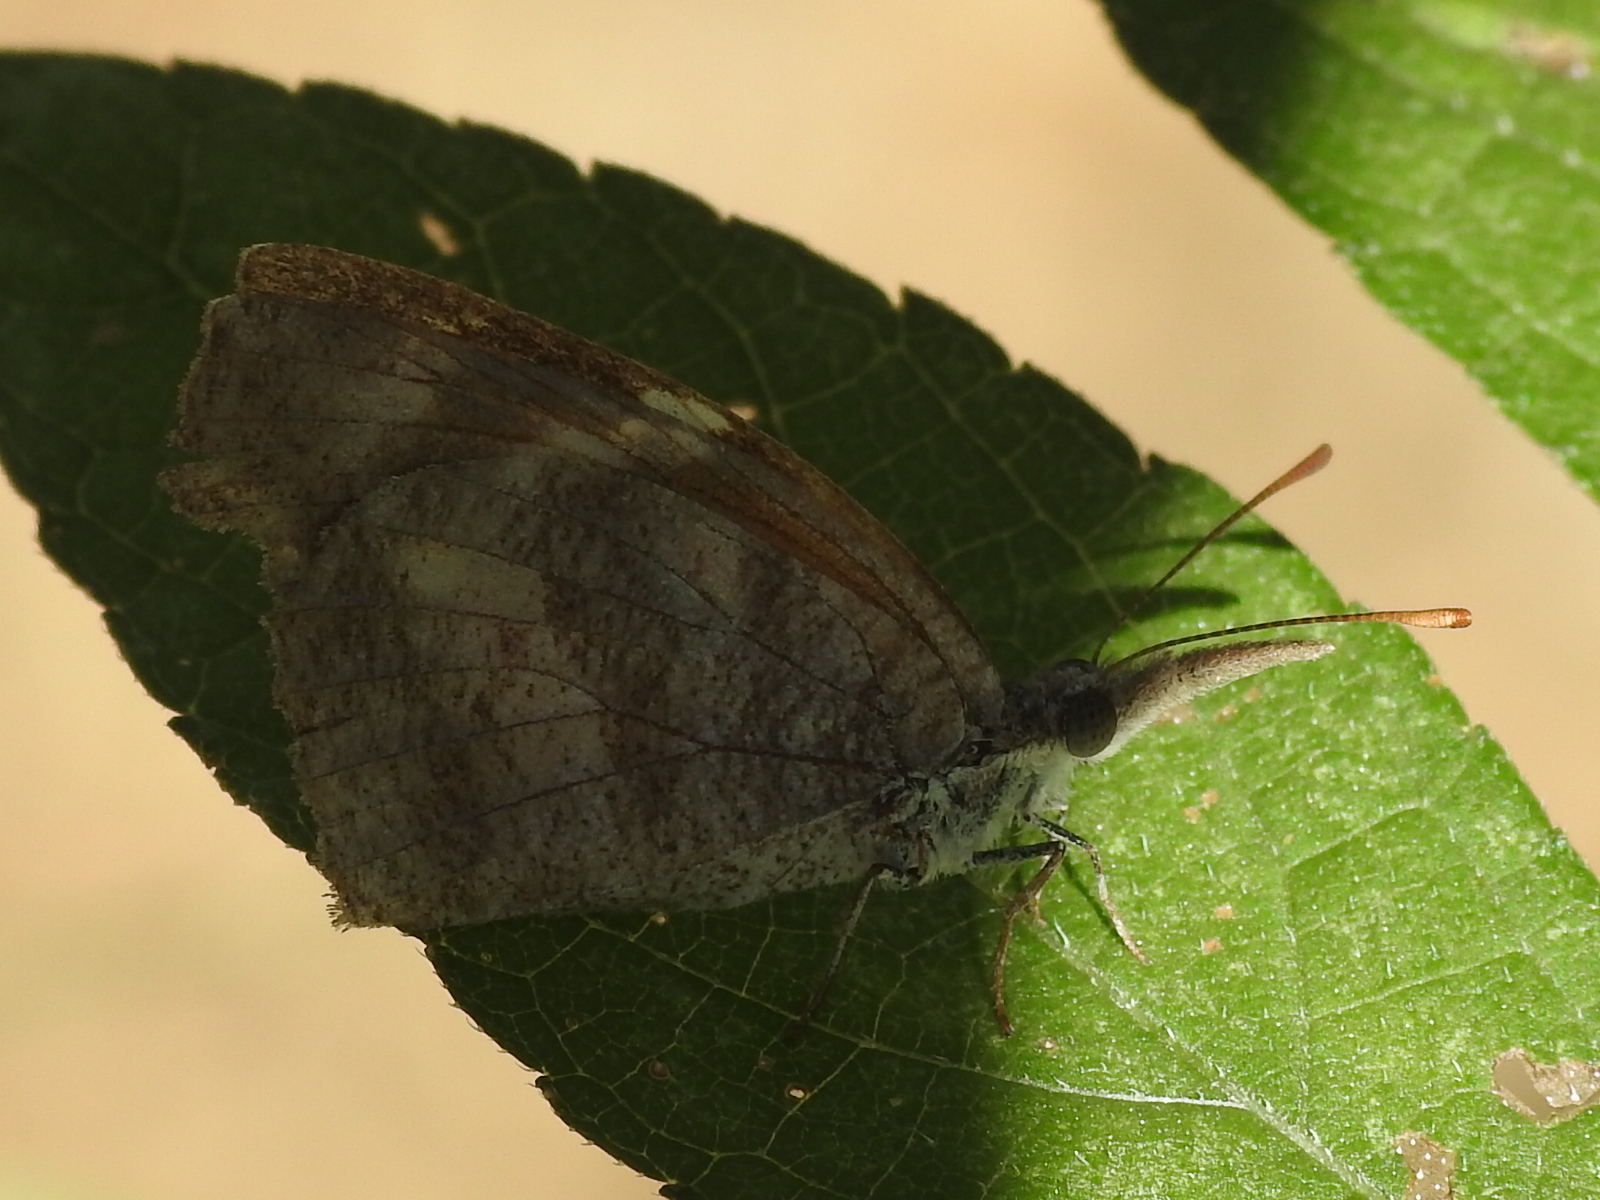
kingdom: Animalia
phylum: Arthropoda
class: Insecta
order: Lepidoptera
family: Nymphalidae
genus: Libytheana
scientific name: Libytheana carinenta
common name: American snout
